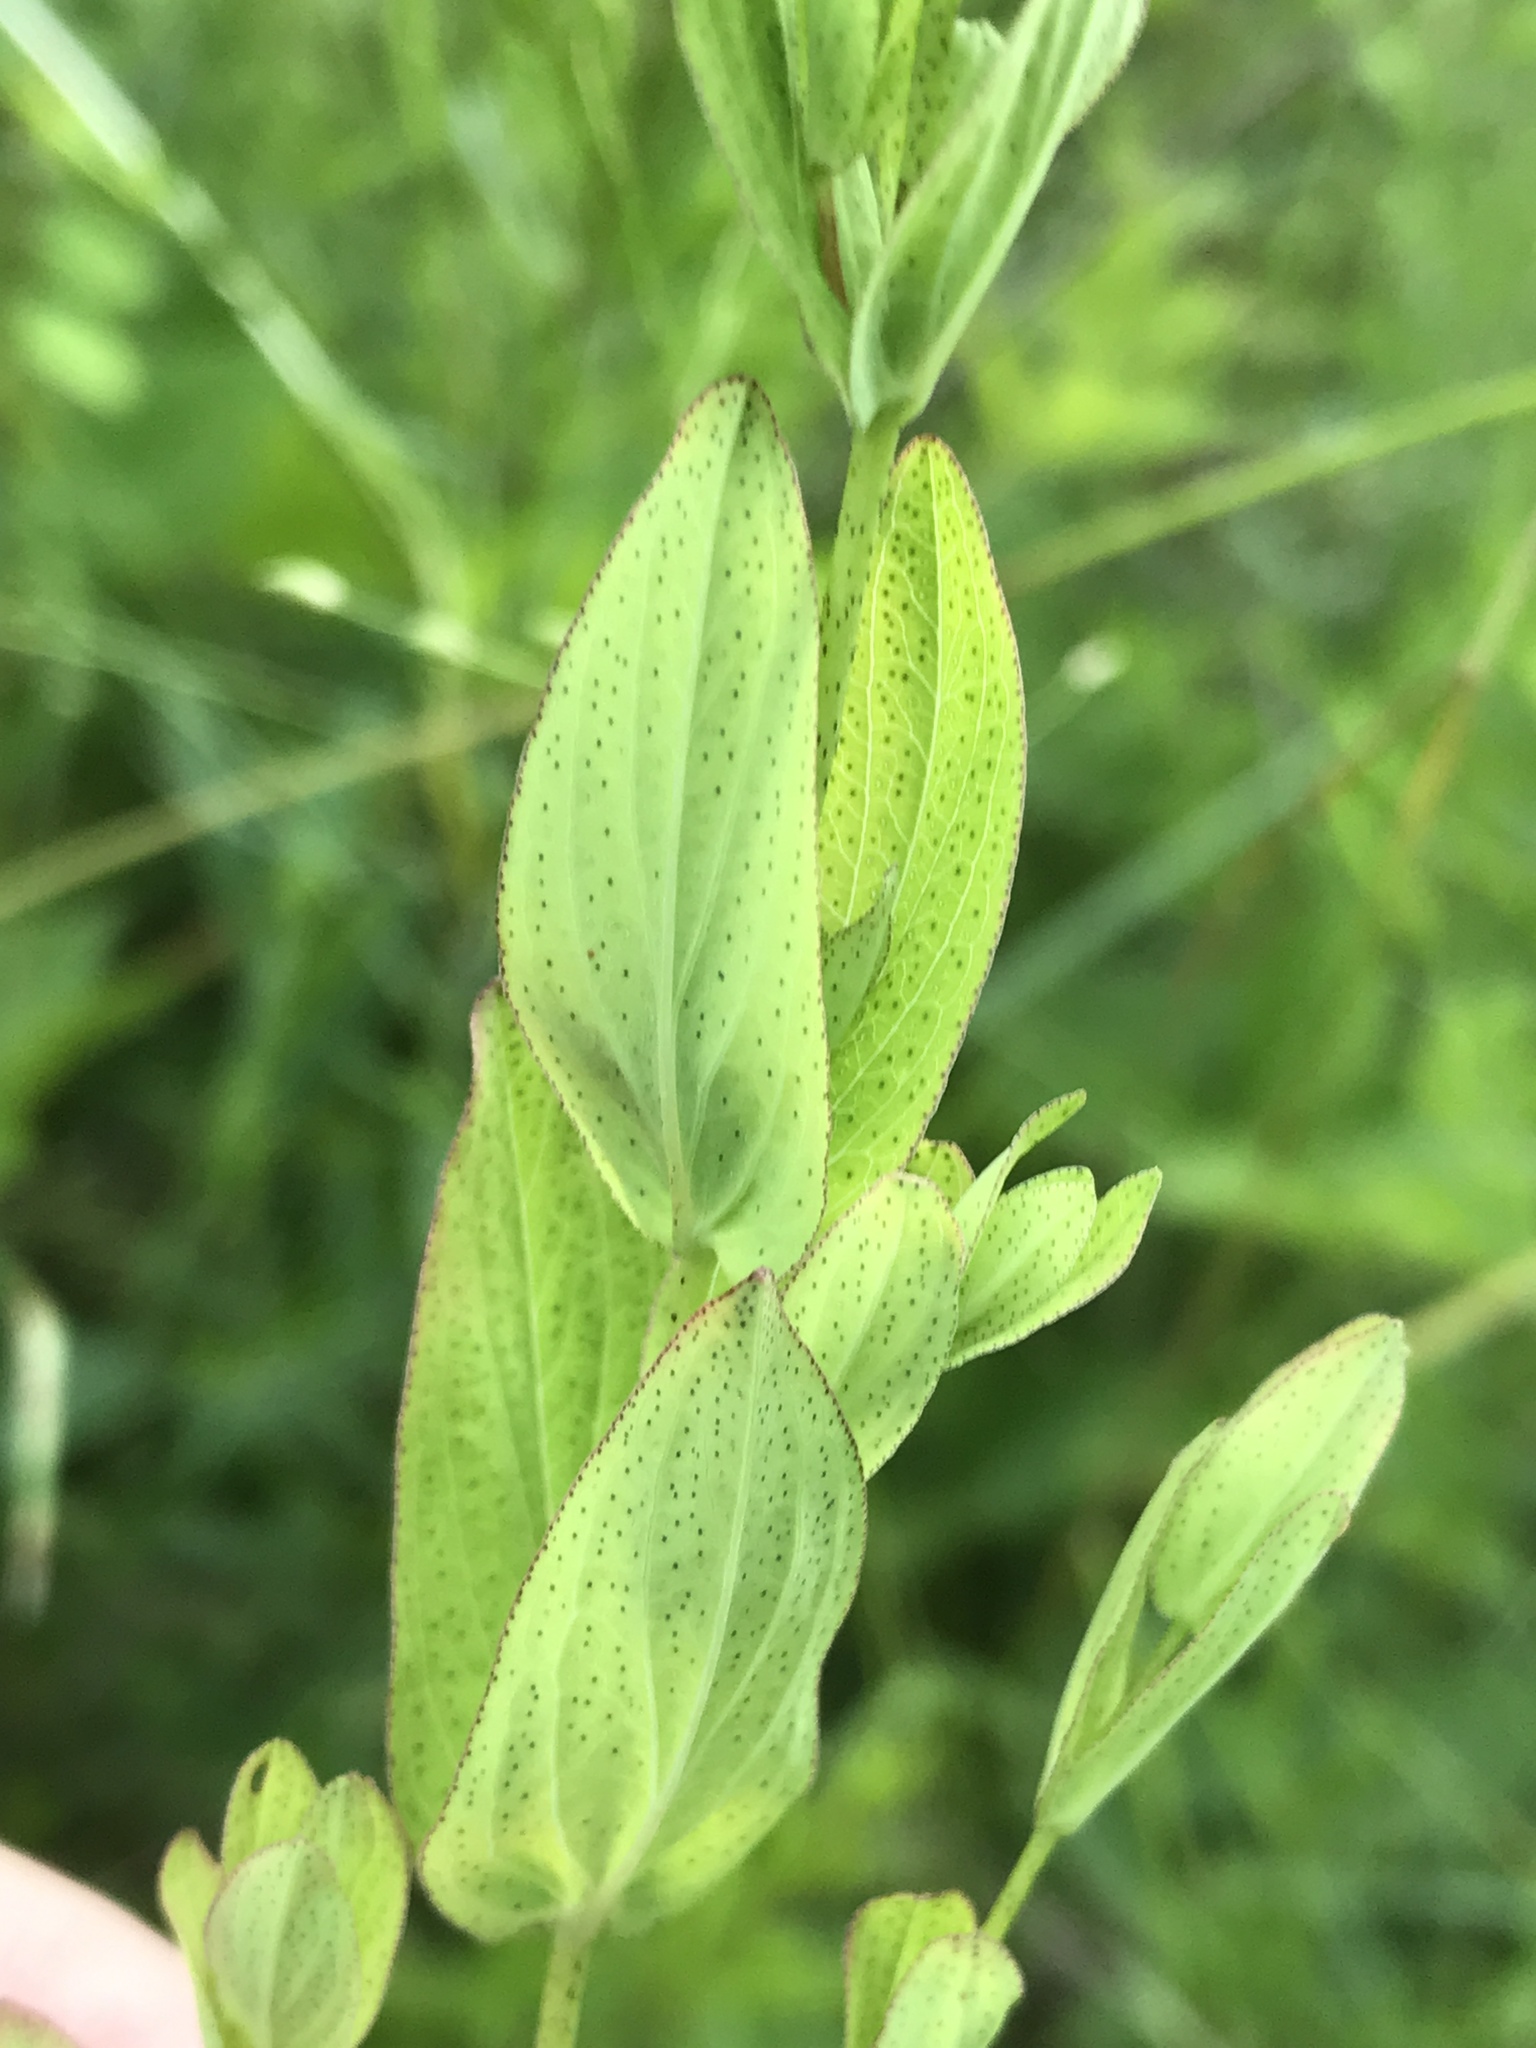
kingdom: Plantae
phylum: Tracheophyta
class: Magnoliopsida
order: Malpighiales
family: Hypericaceae
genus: Hypericum
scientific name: Hypericum punctatum
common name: Spotted st. john's-wort
